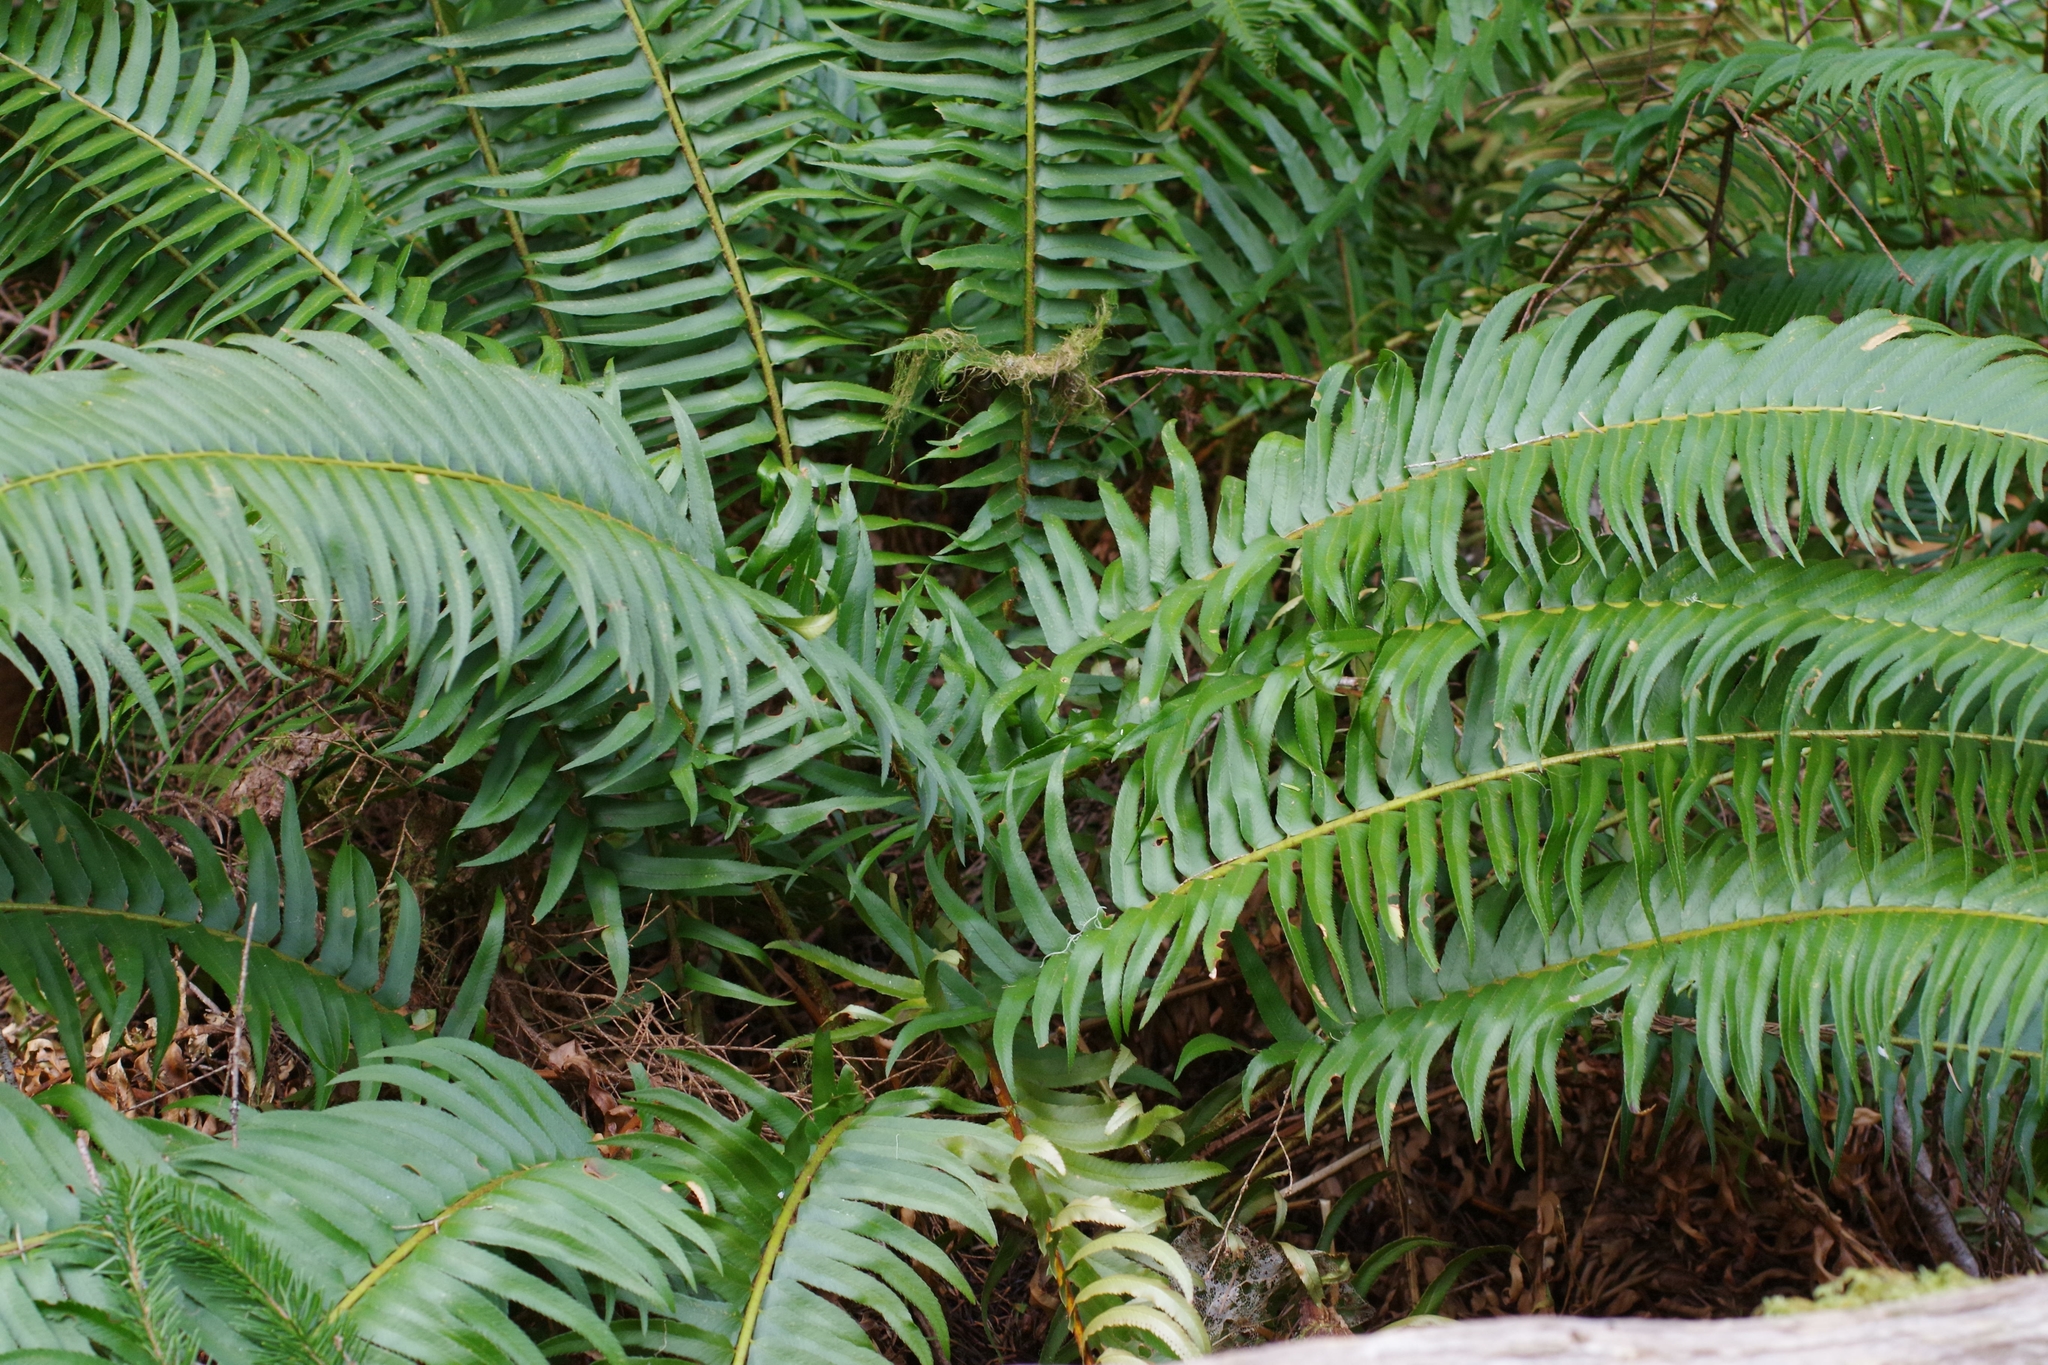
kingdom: Plantae
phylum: Tracheophyta
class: Polypodiopsida
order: Polypodiales
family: Dryopteridaceae
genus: Polystichum
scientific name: Polystichum munitum
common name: Western sword-fern
